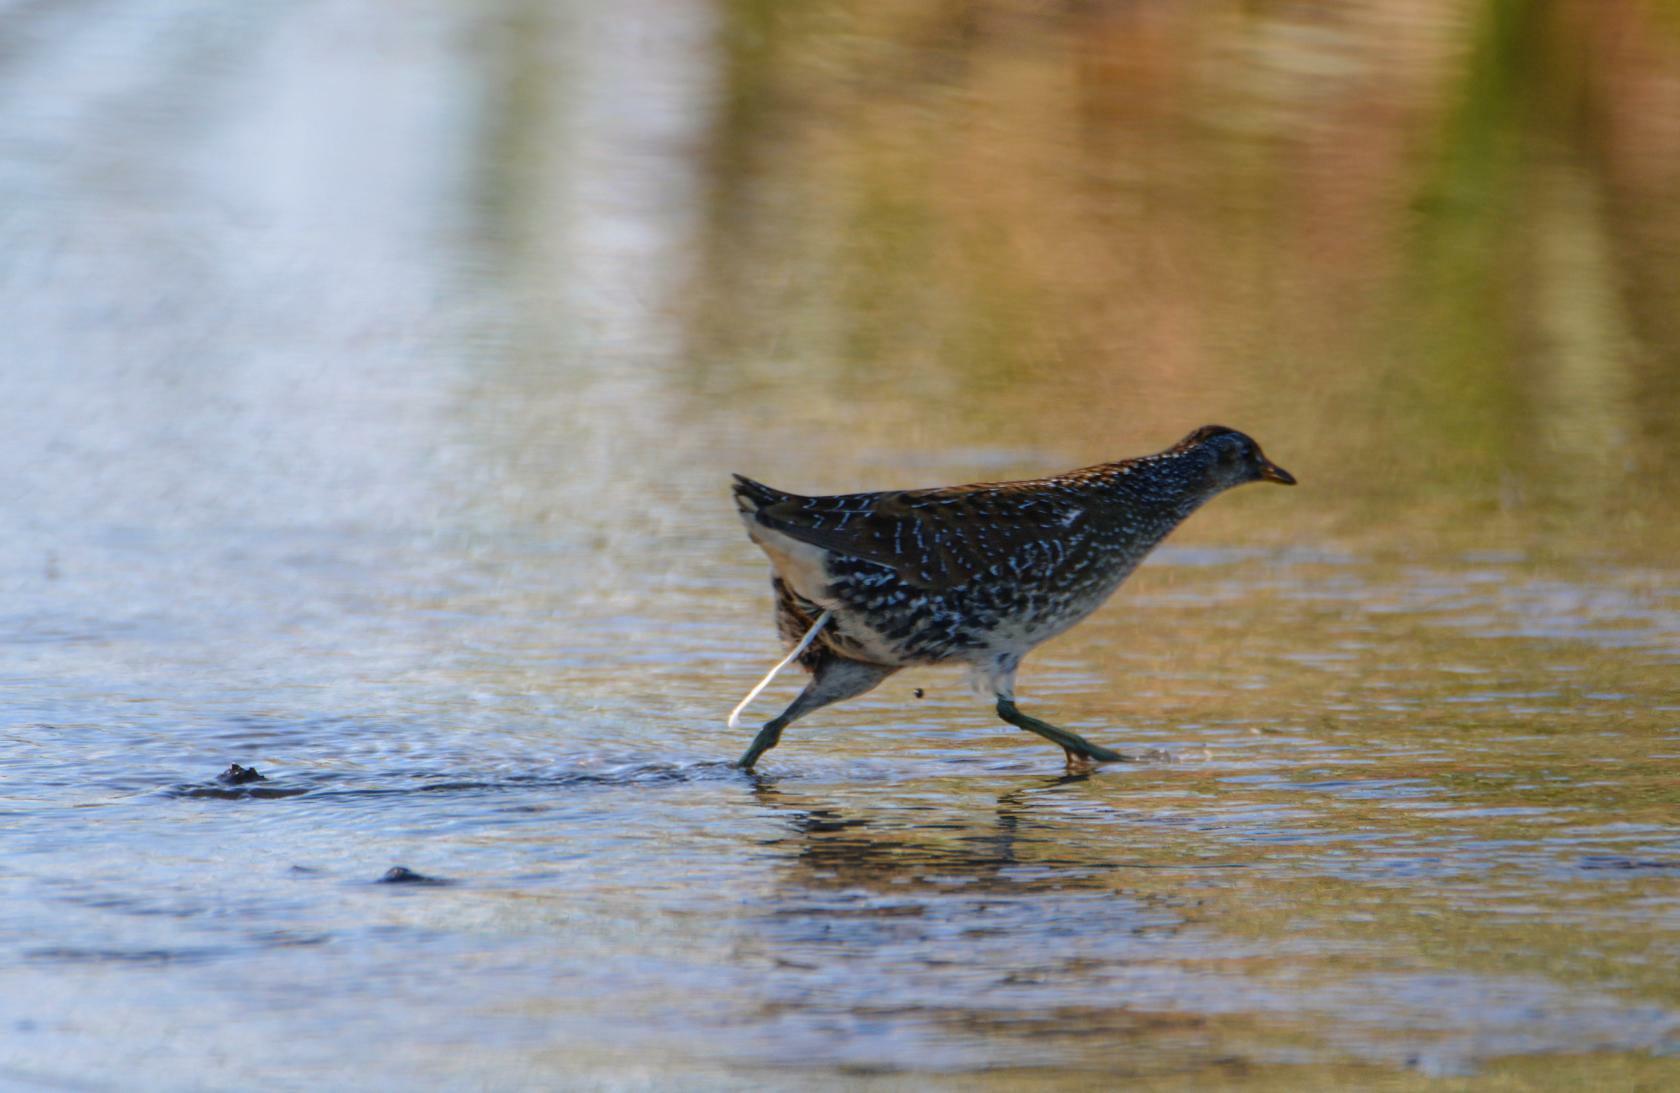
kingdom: Animalia
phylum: Chordata
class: Aves
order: Gruiformes
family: Rallidae
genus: Porzana
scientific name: Porzana porzana
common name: Spotted crake
